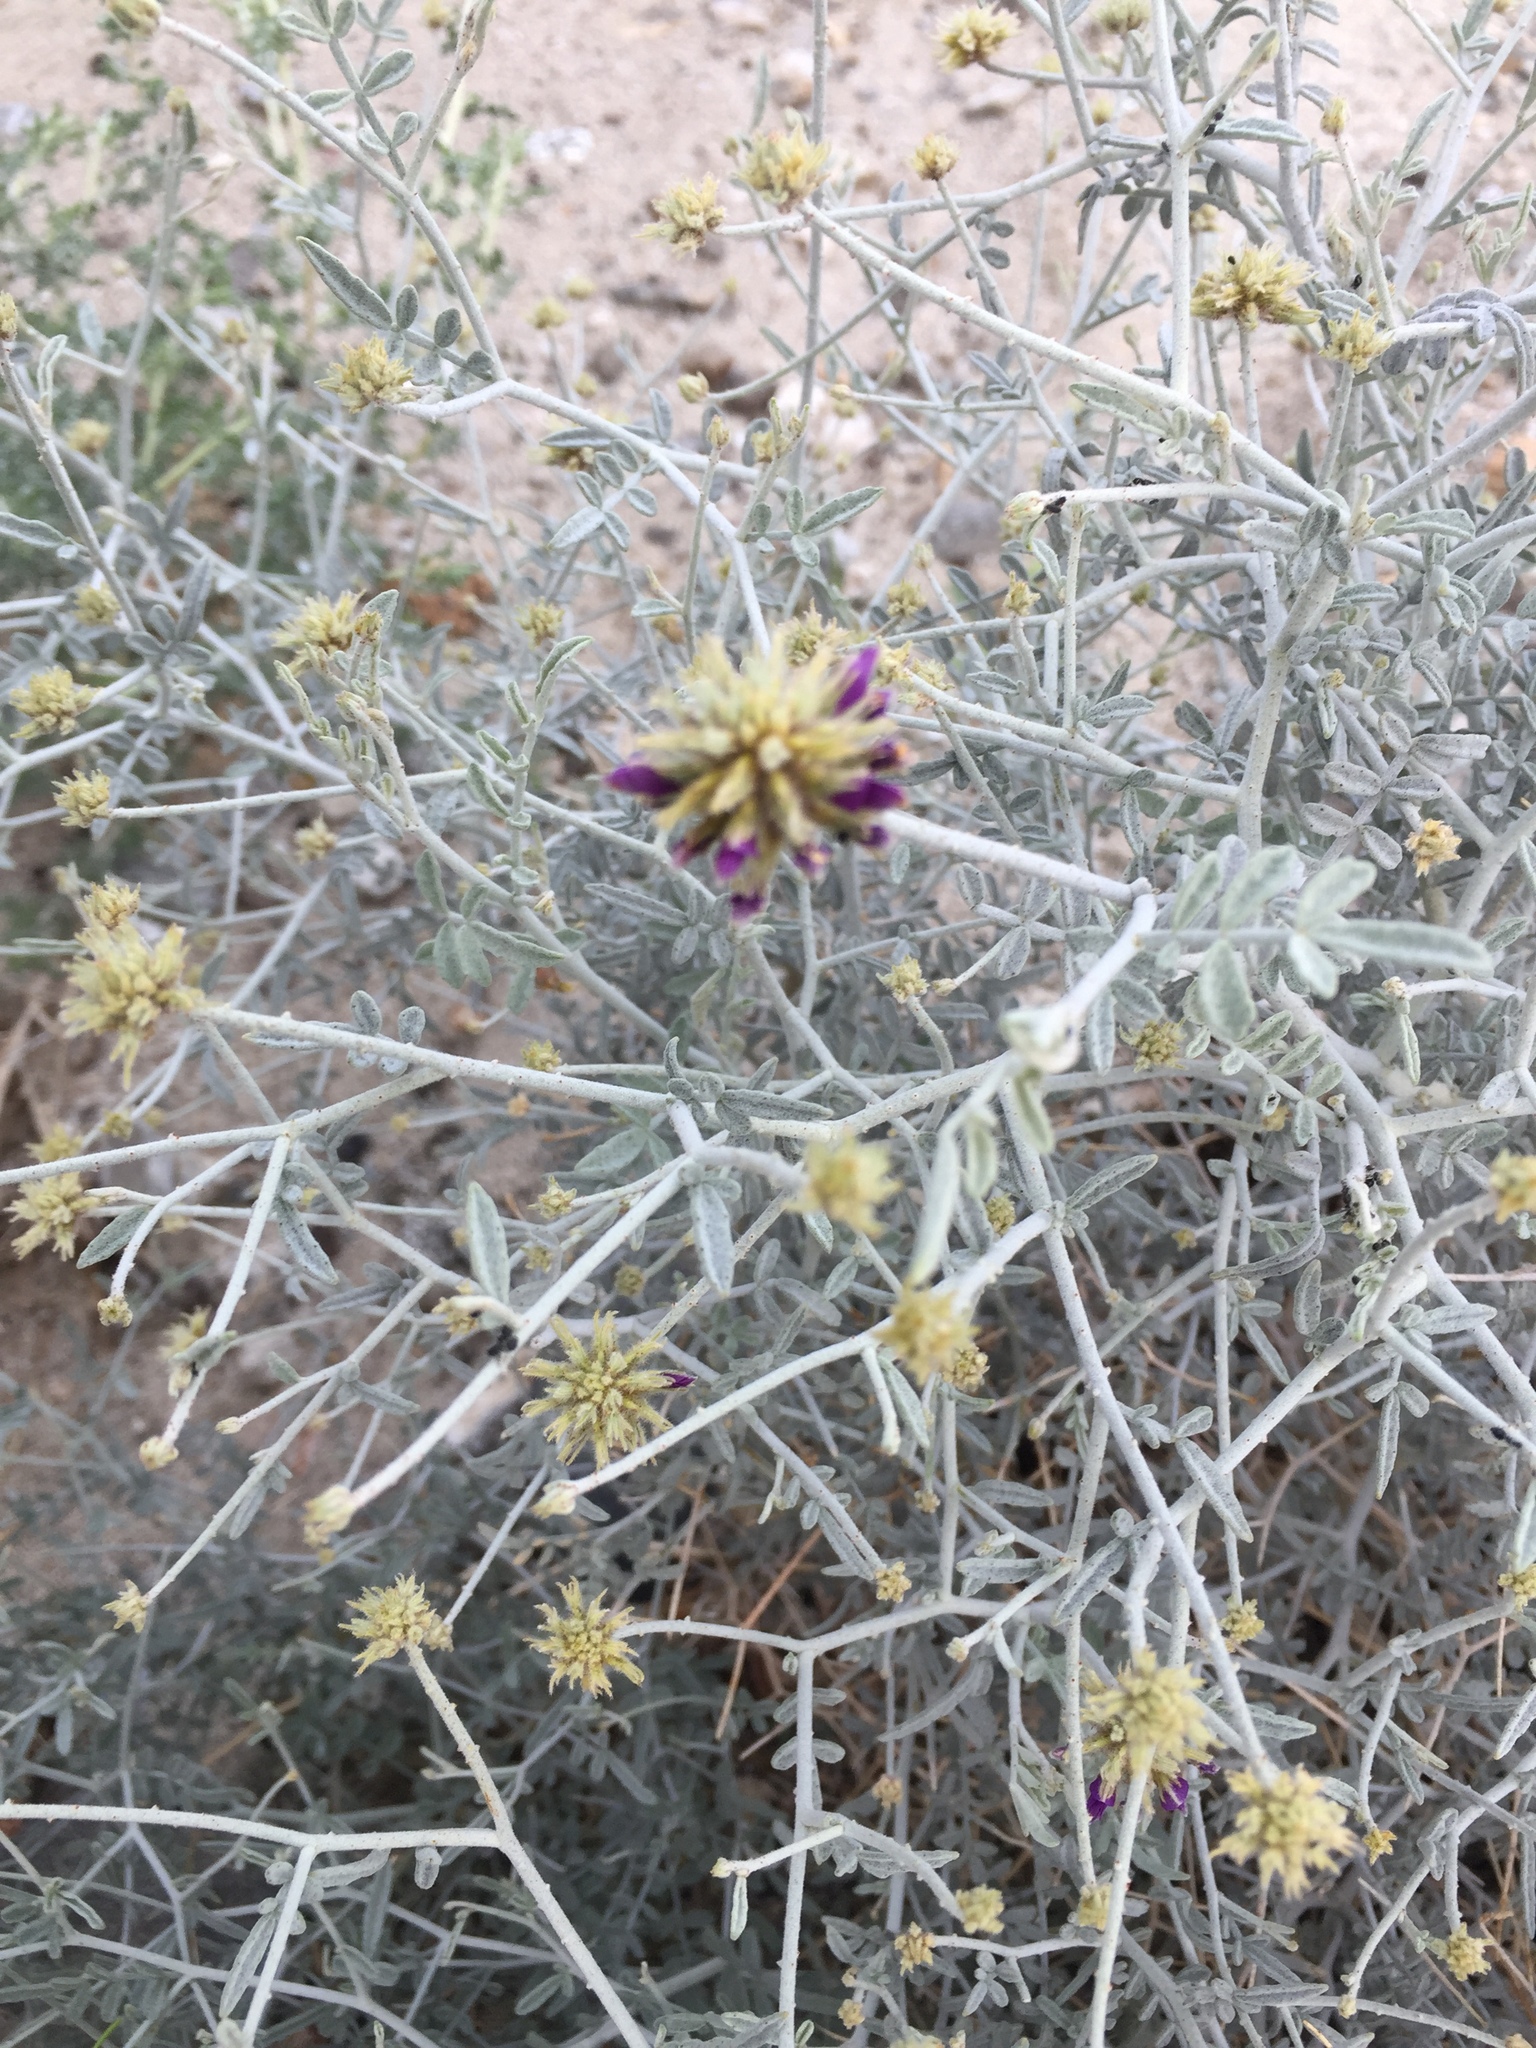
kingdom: Plantae
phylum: Tracheophyta
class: Magnoliopsida
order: Fabales
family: Fabaceae
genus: Psorothamnus
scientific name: Psorothamnus emoryi
